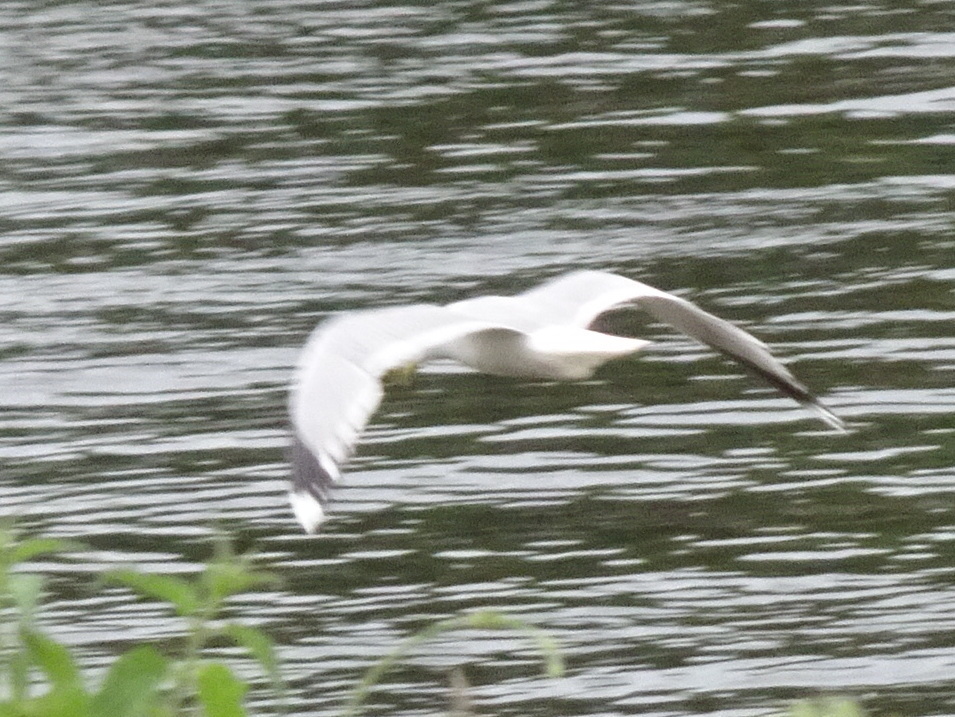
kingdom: Animalia
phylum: Chordata
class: Aves
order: Charadriiformes
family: Laridae
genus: Larus
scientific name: Larus canus
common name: Mew gull
